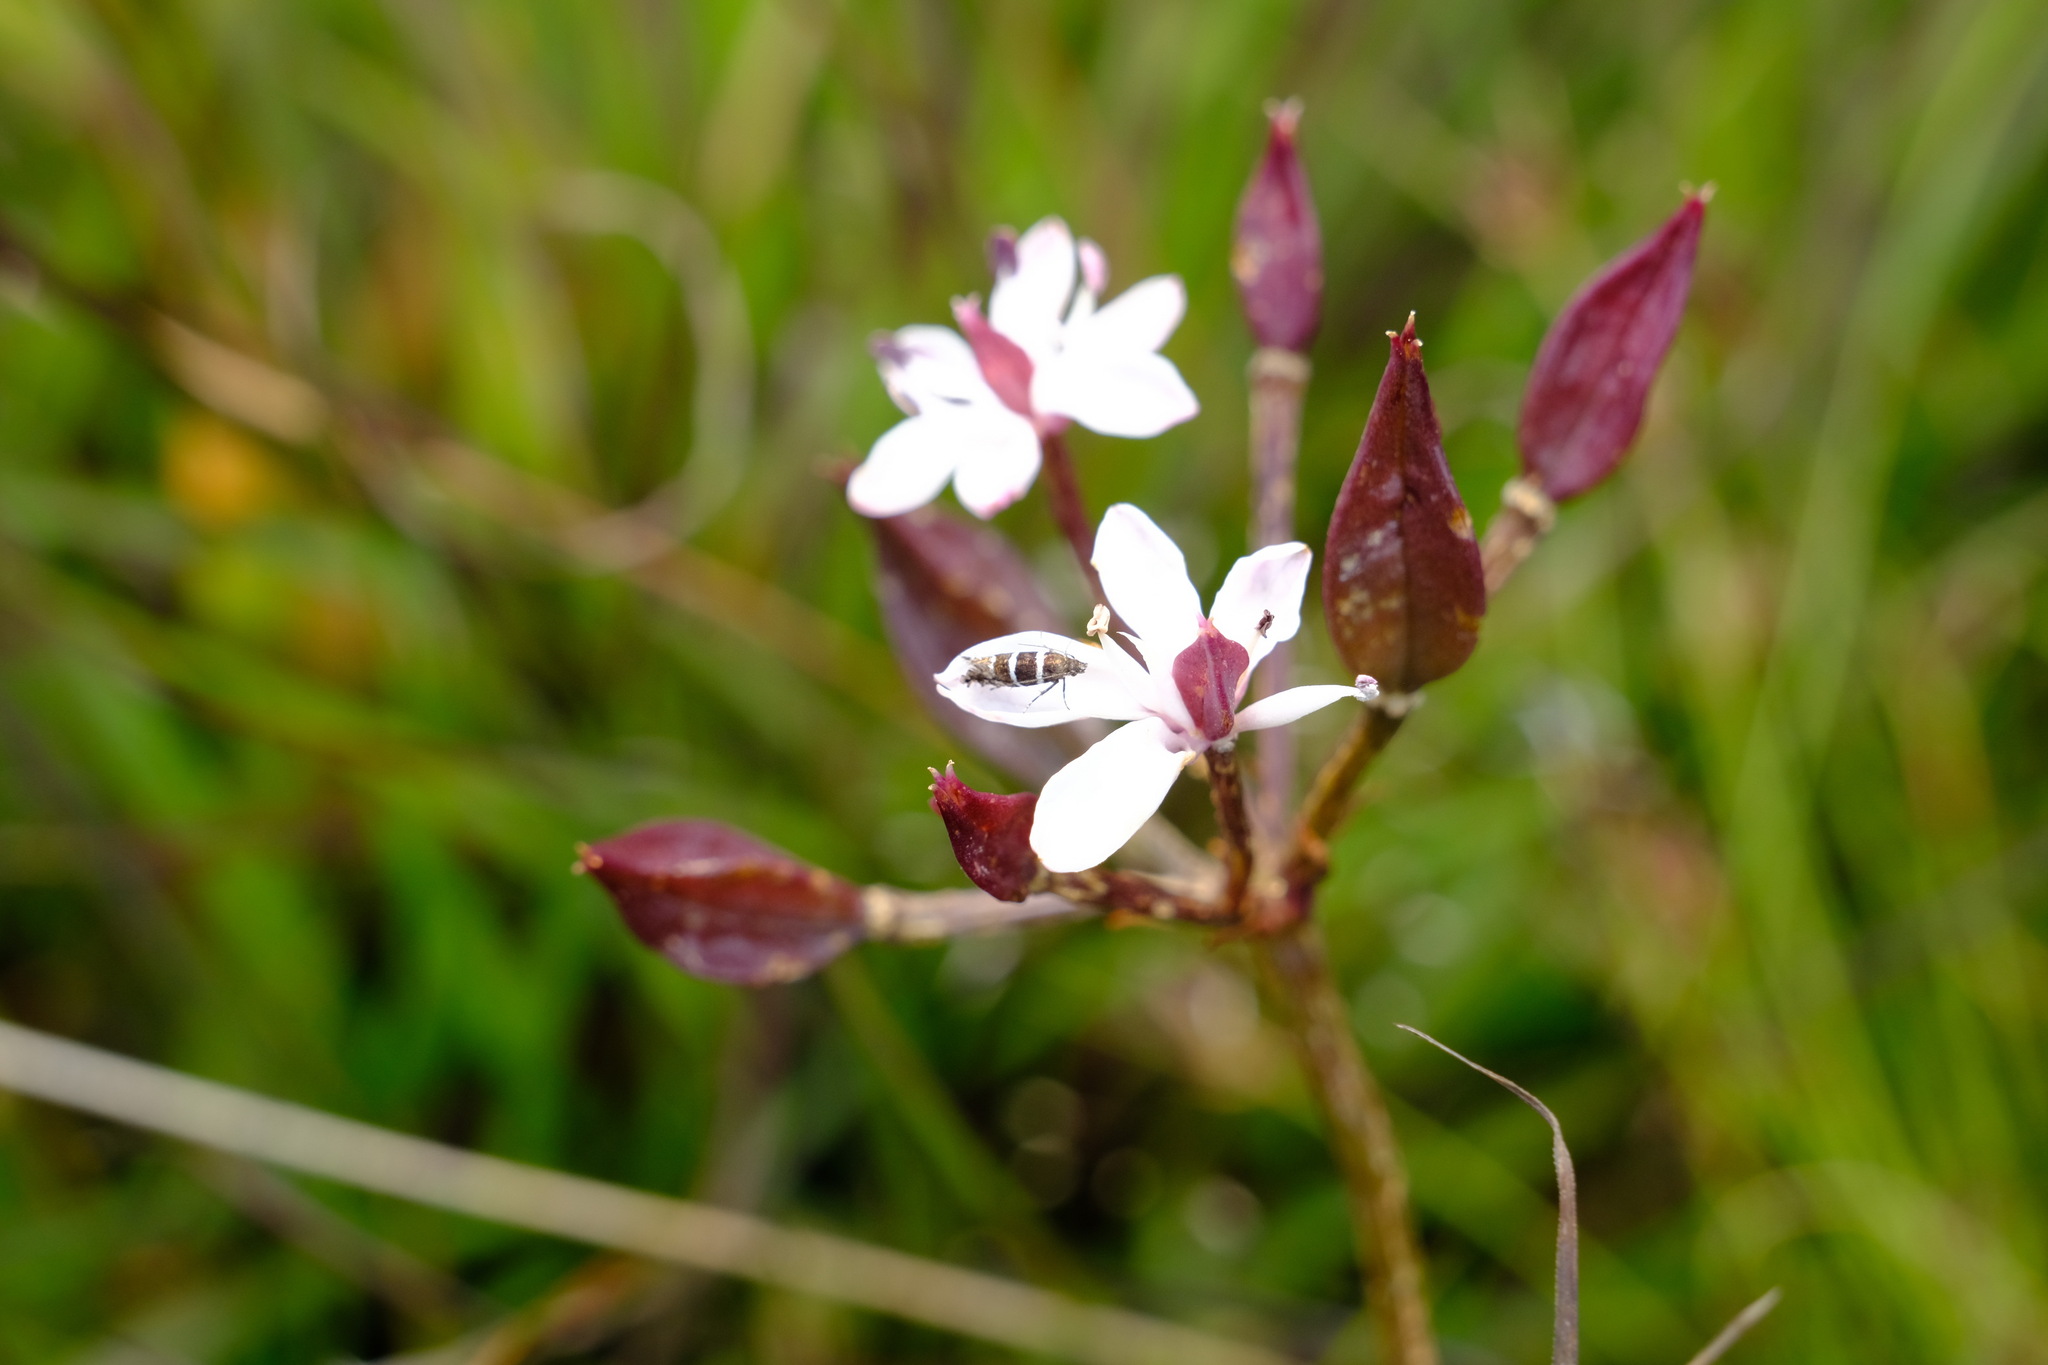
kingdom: Plantae
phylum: Tracheophyta
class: Liliopsida
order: Liliales
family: Colchicaceae
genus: Burchardia
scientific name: Burchardia umbellata
